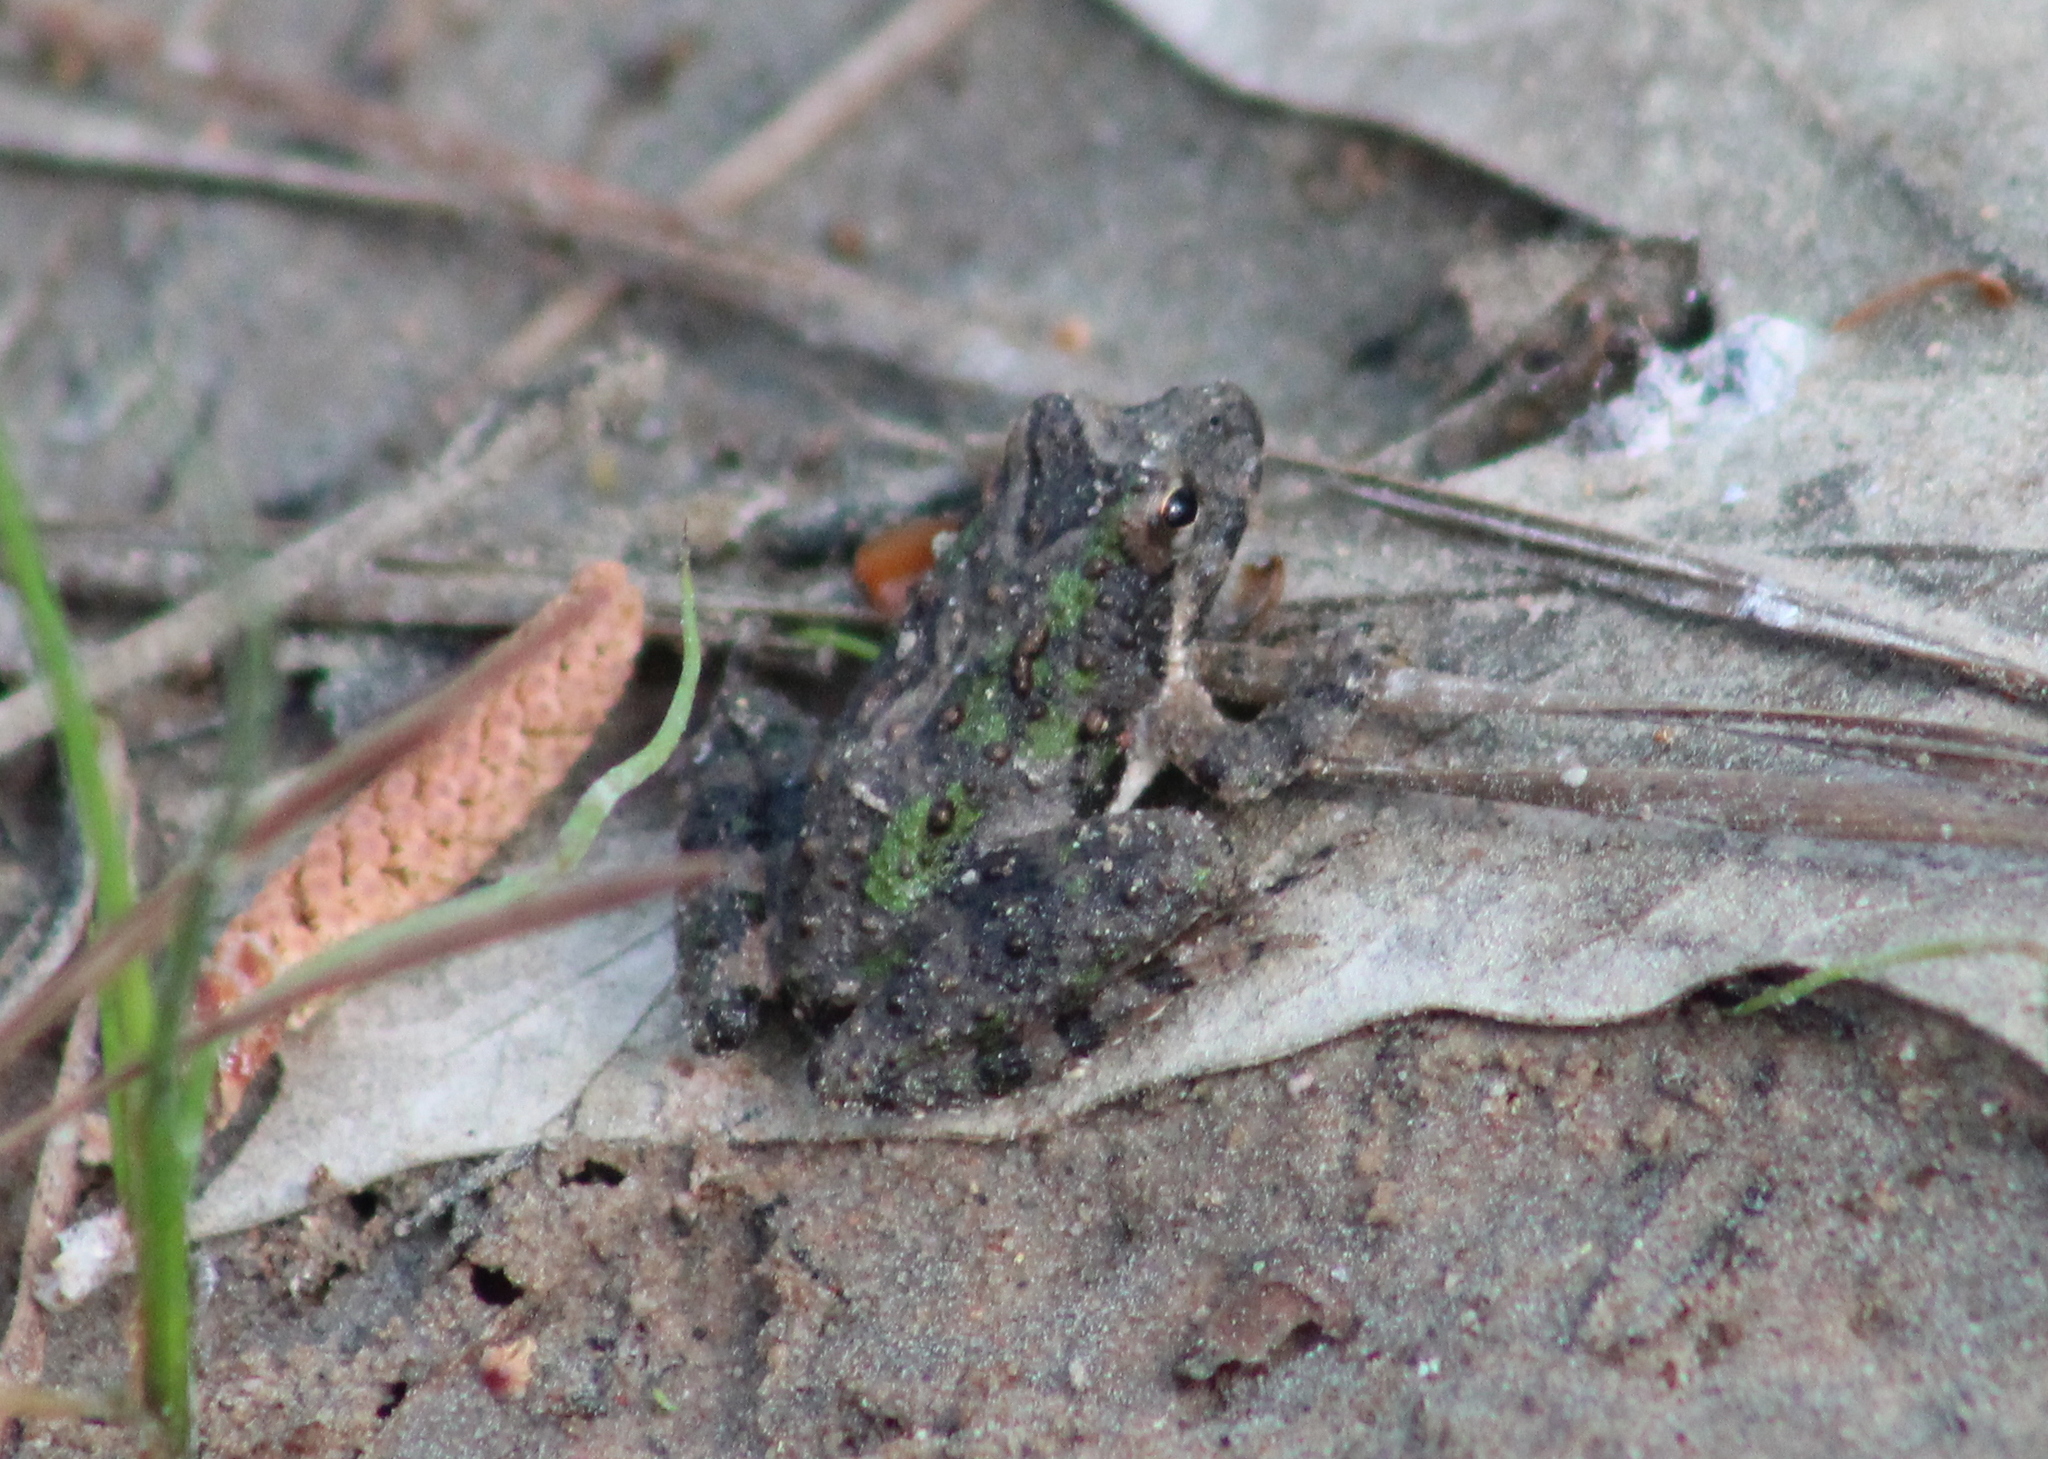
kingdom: Animalia
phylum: Chordata
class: Amphibia
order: Anura
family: Hylidae
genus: Acris
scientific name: Acris blanchardi
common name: Blanchard's cricket frog
